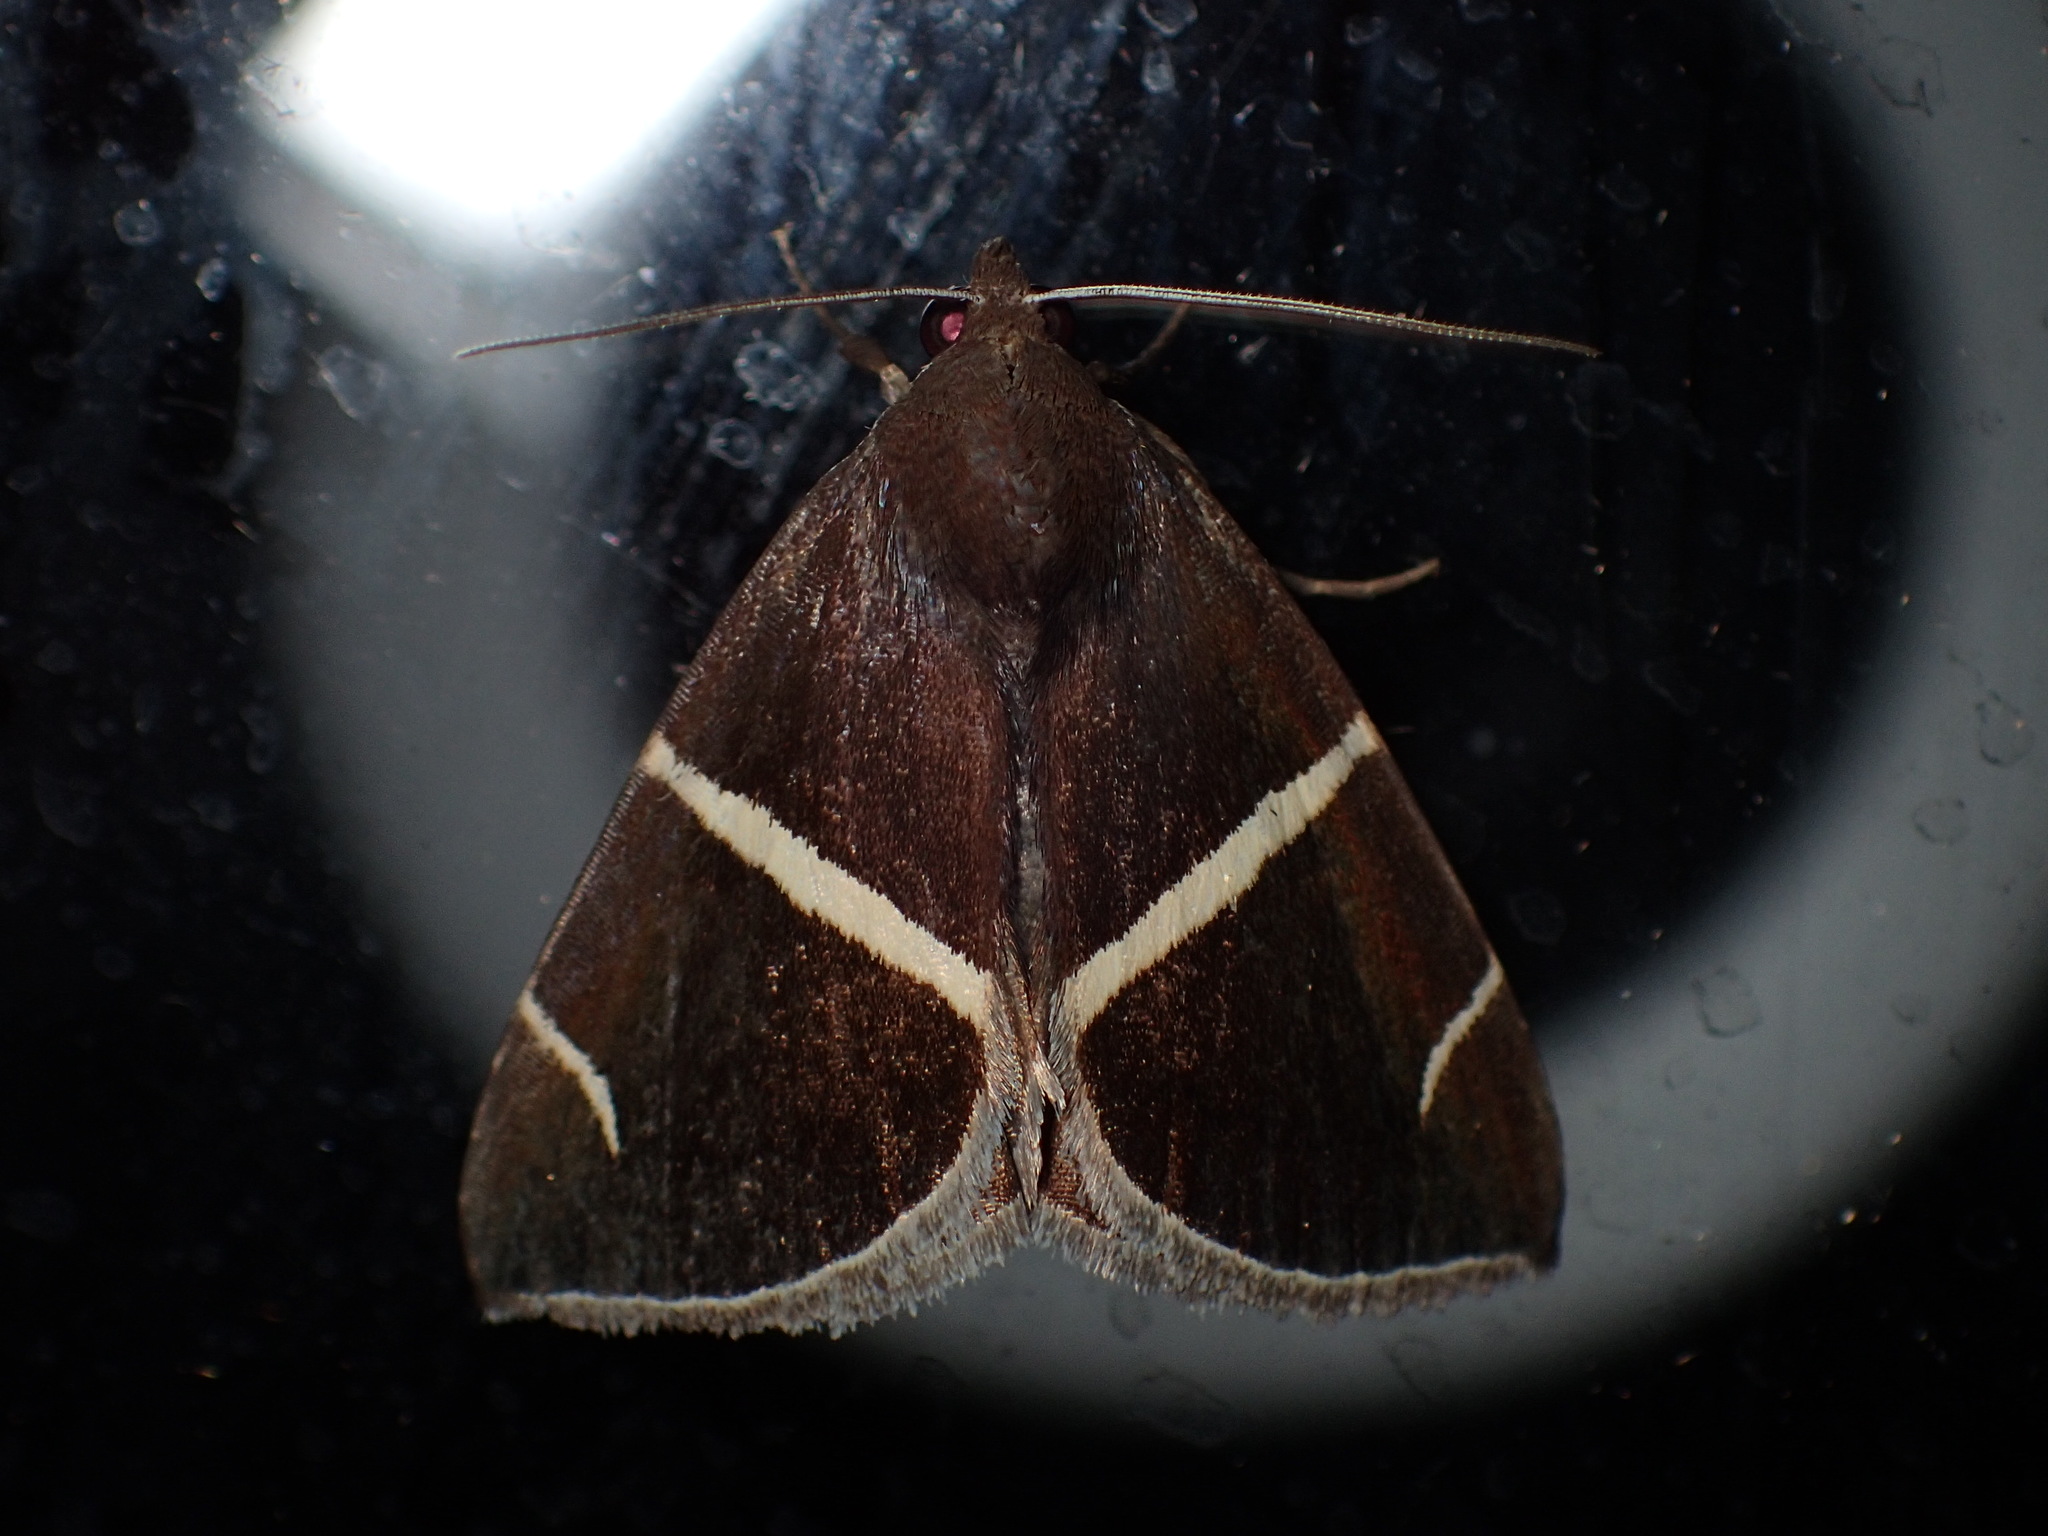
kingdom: Animalia
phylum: Arthropoda
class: Insecta
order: Lepidoptera
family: Erebidae
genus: Argyrostrotis
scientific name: Argyrostrotis anilis
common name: Short-lined chocolate
